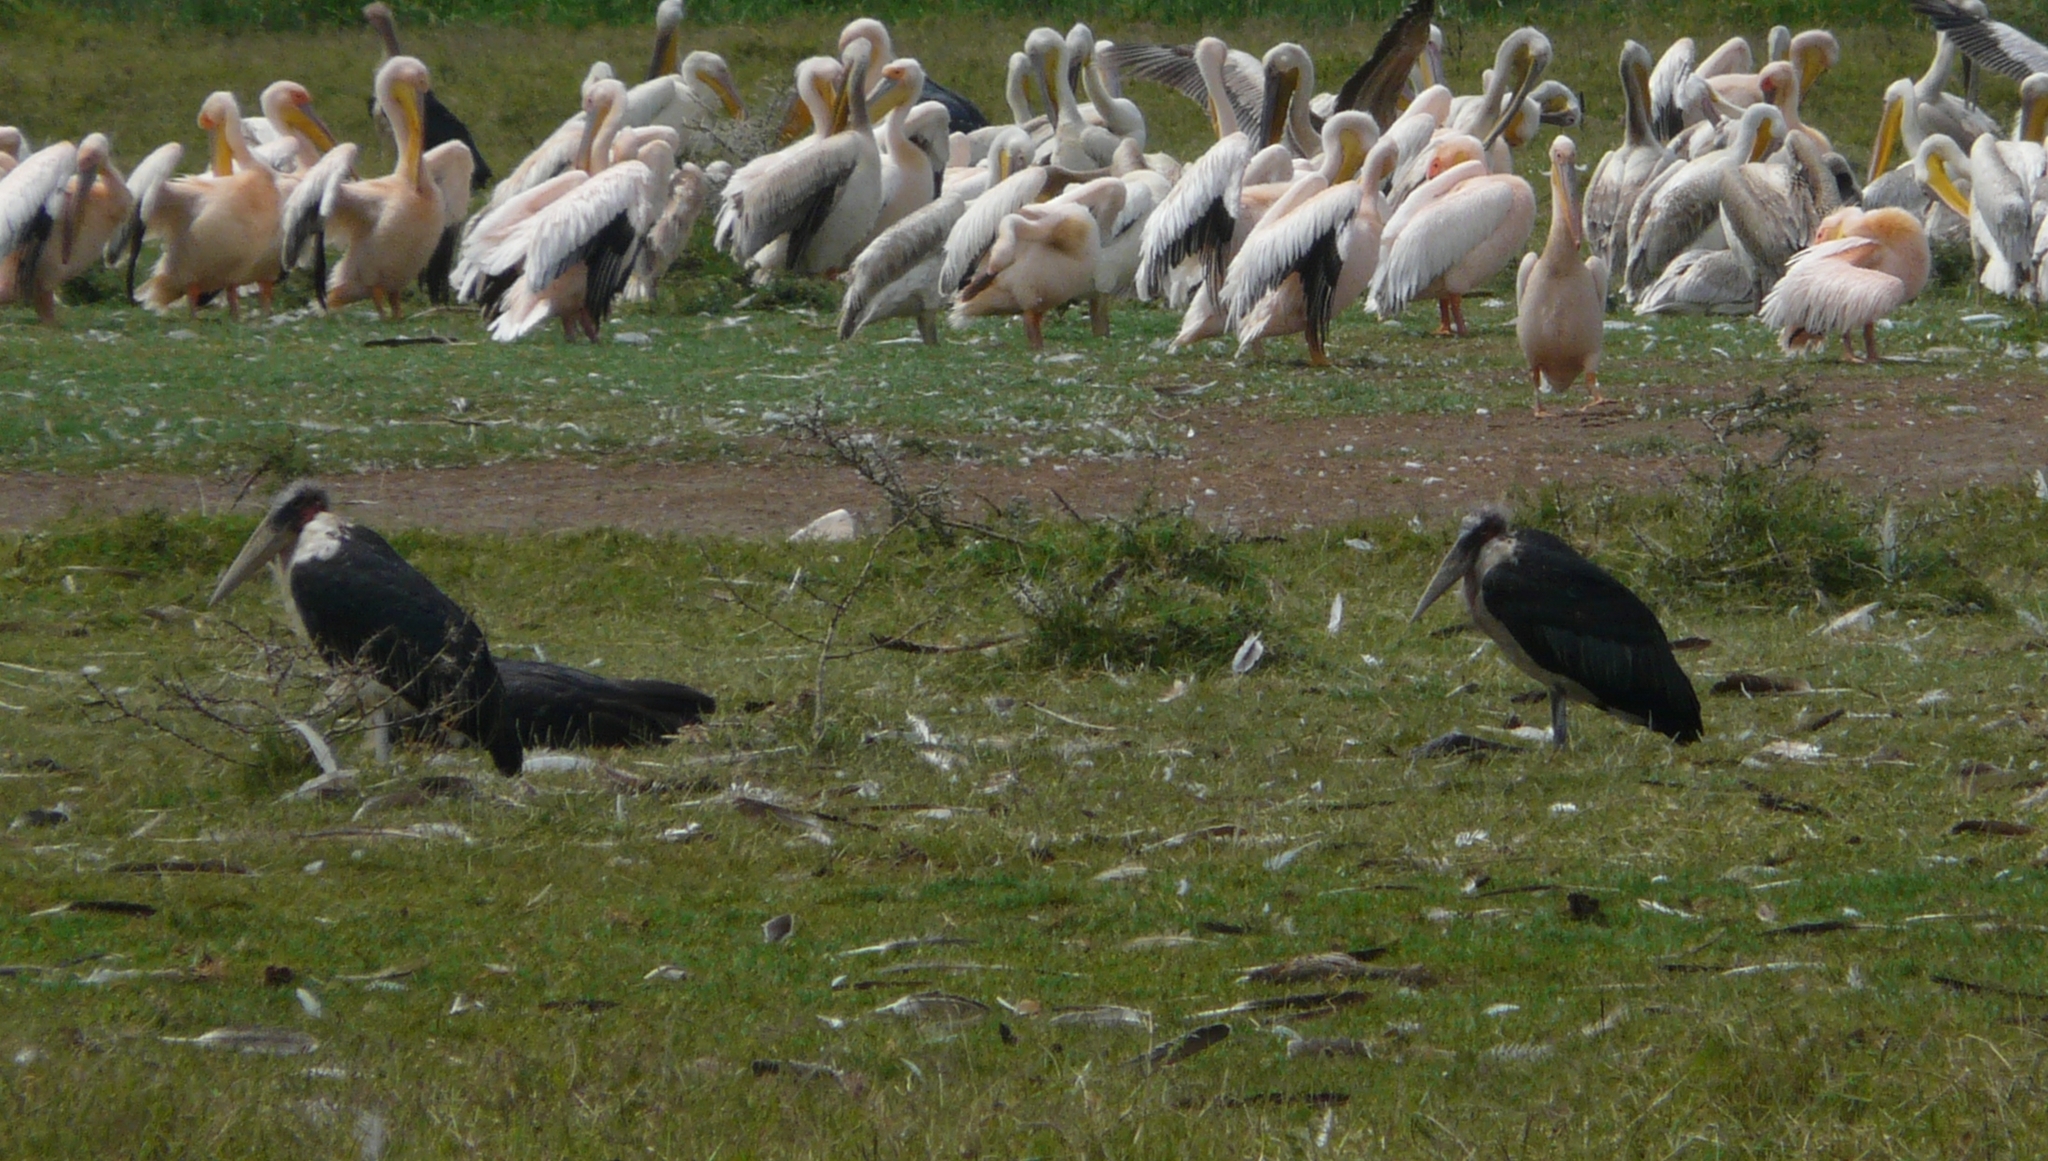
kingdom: Animalia
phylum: Chordata
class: Aves
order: Ciconiiformes
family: Ciconiidae
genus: Leptoptilos
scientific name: Leptoptilos crumenifer
